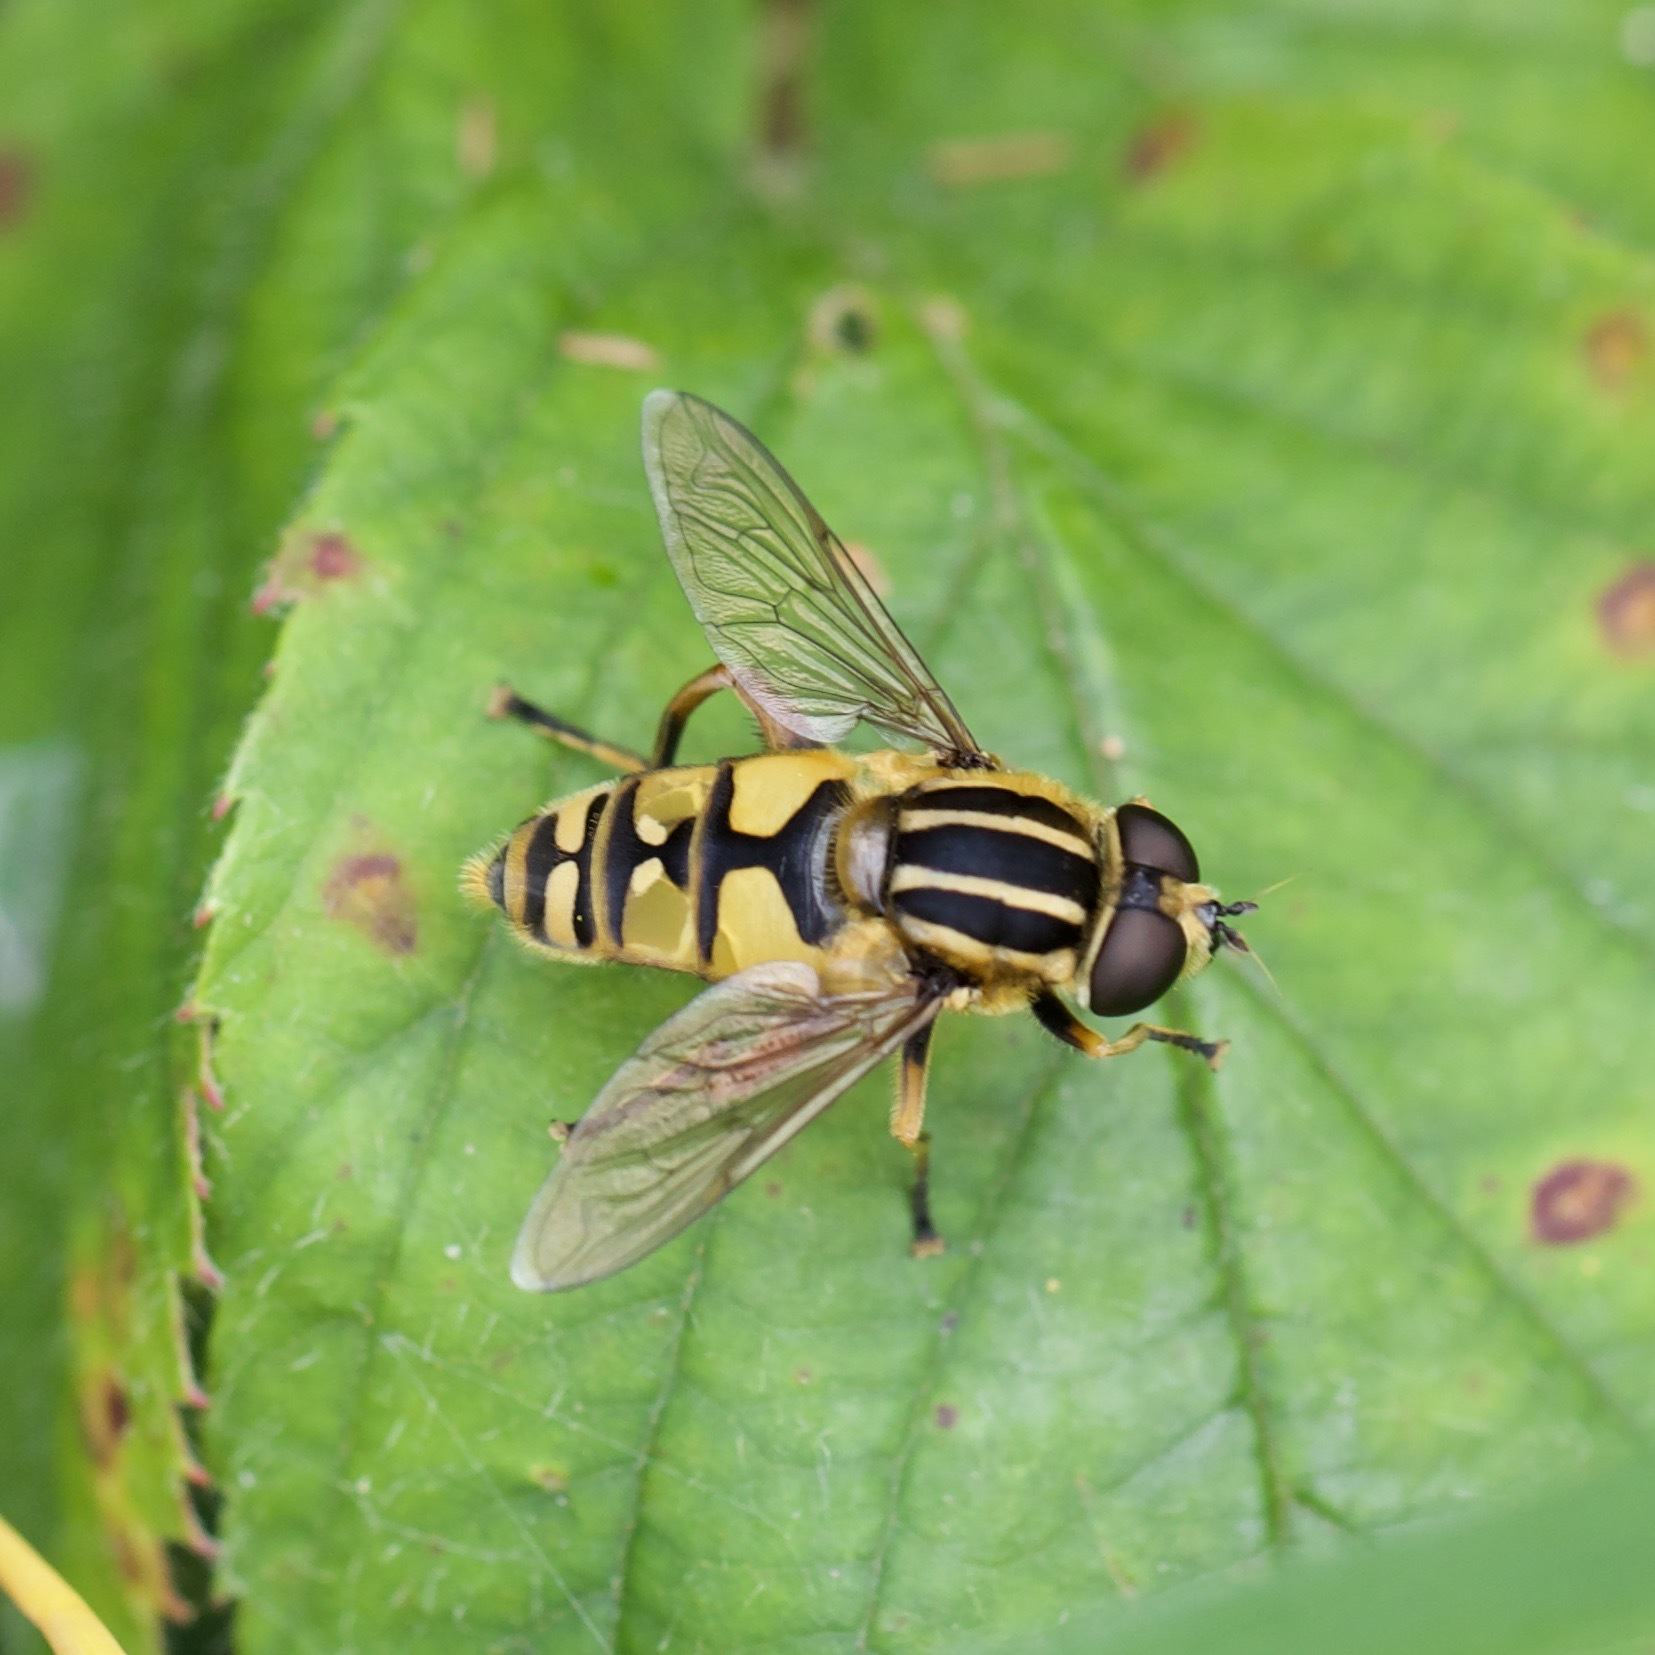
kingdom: Animalia
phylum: Arthropoda
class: Insecta
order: Diptera
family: Syrphidae
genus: Helophilus
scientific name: Helophilus pendulus
